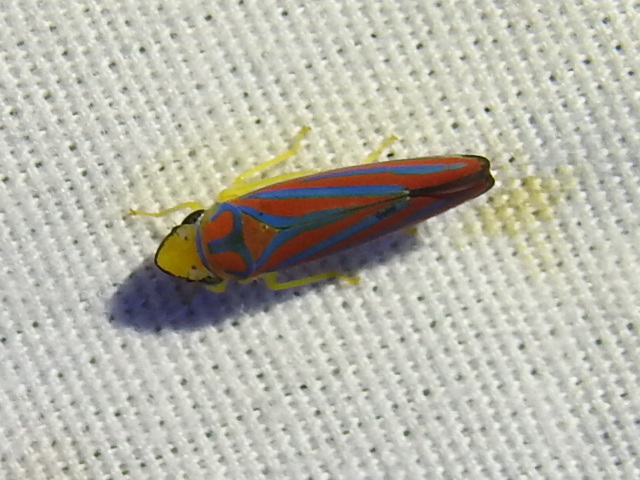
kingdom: Animalia
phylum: Arthropoda
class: Insecta
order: Hemiptera
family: Cicadellidae
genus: Graphocephala
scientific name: Graphocephala coccinea
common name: Candy-striped leafhopper
